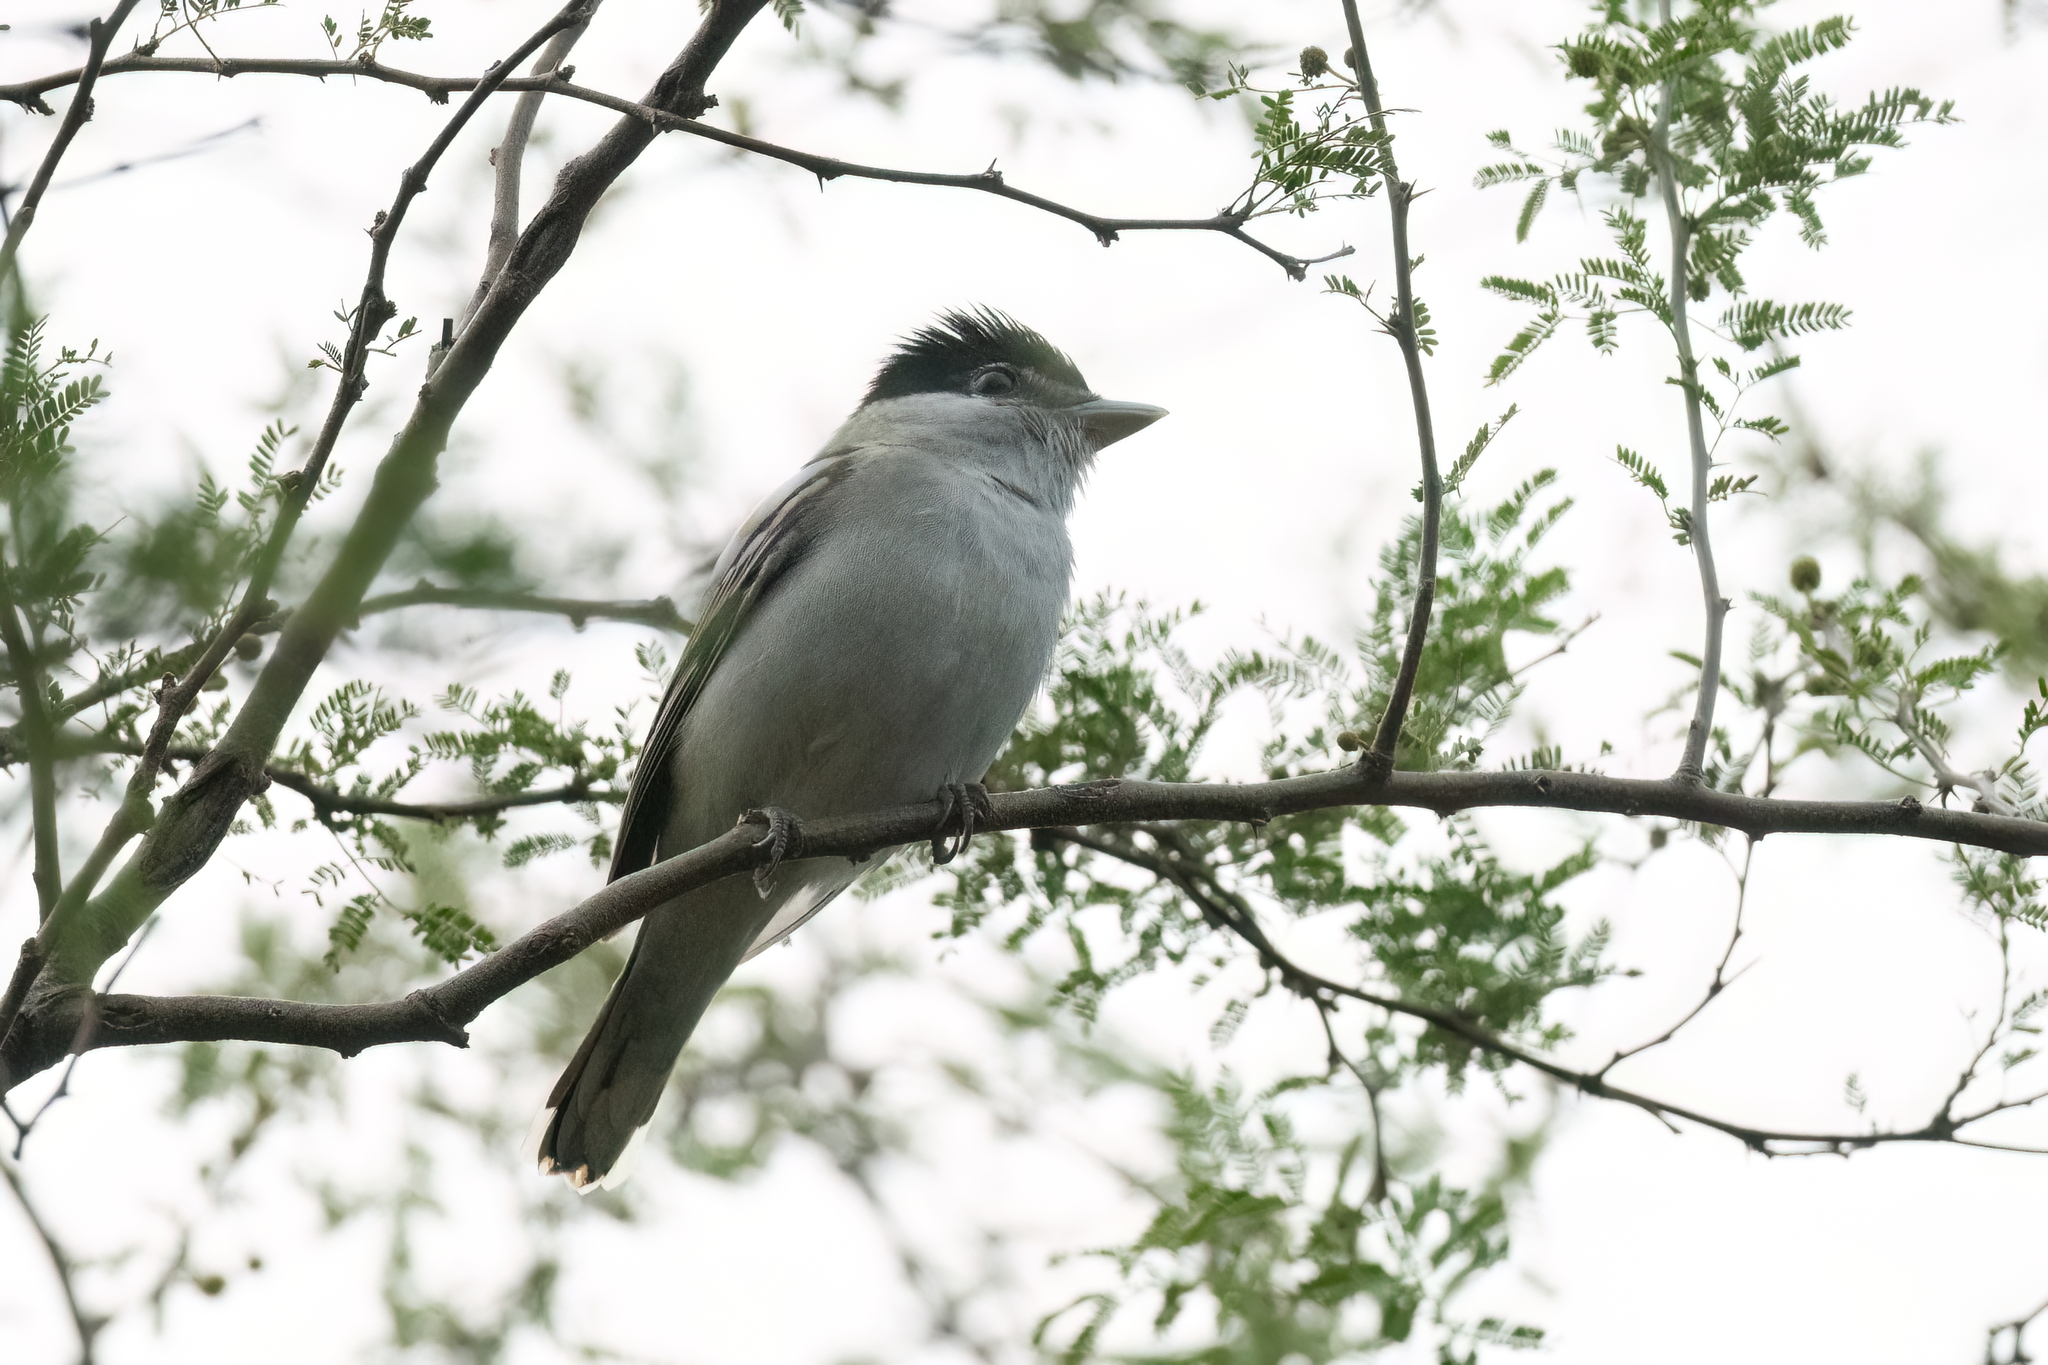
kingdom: Animalia
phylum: Chordata
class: Aves
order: Passeriformes
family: Cotingidae
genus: Pachyramphus
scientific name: Pachyramphus major
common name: Gray-collared becard
